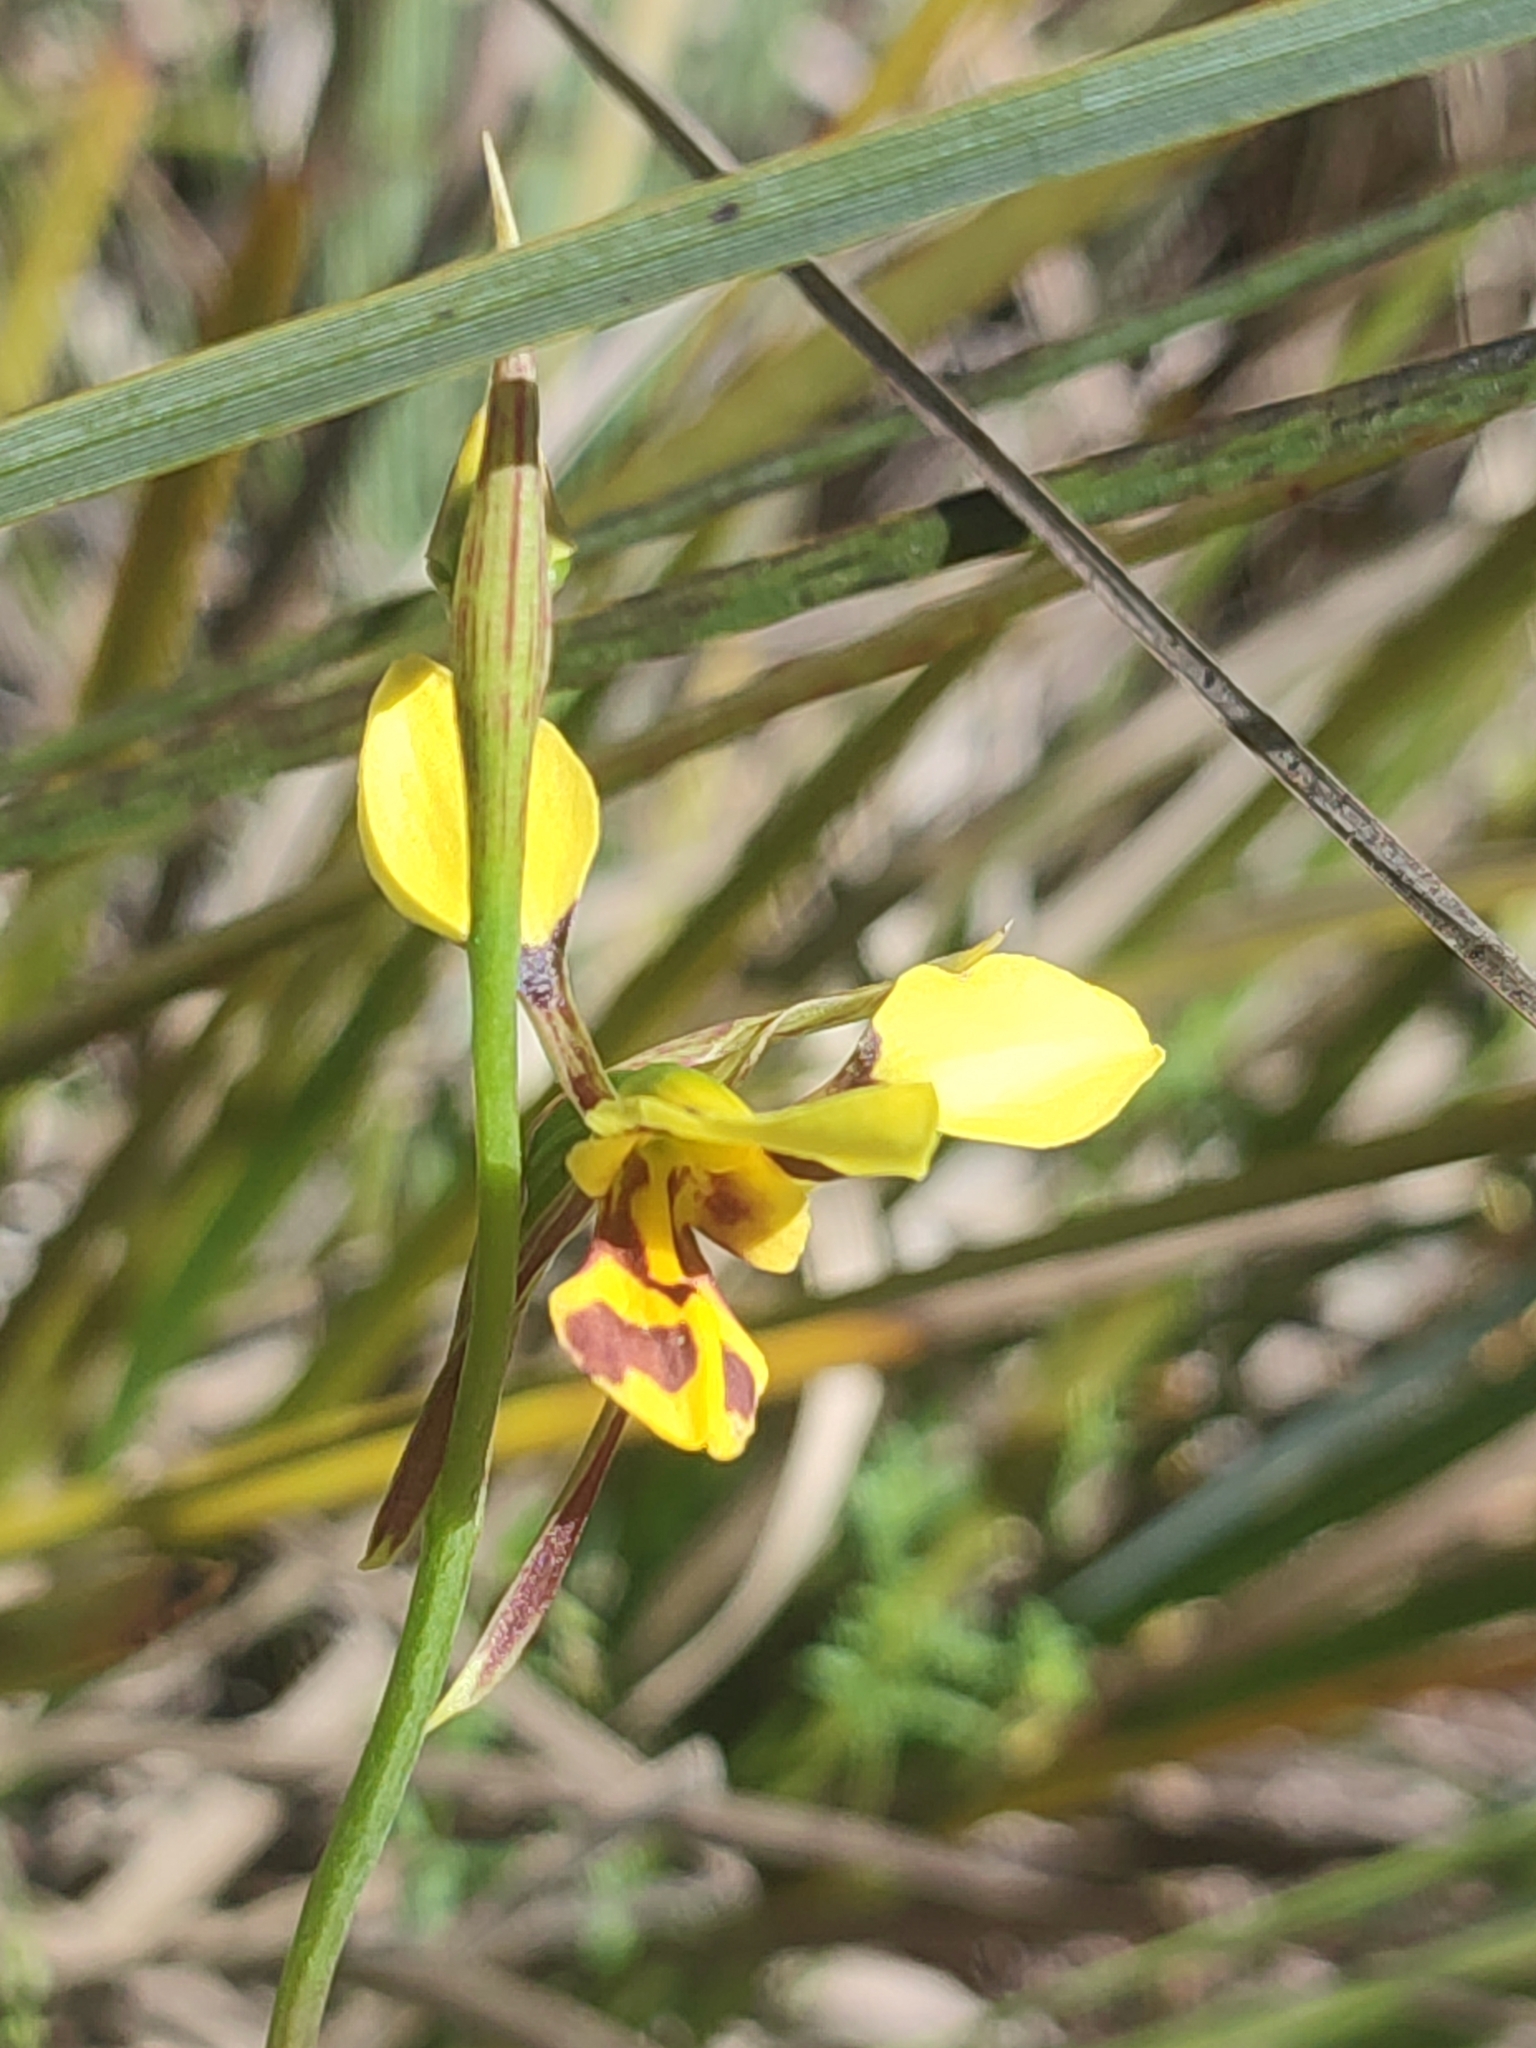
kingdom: Plantae
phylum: Tracheophyta
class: Liliopsida
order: Asparagales
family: Orchidaceae
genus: Diuris
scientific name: Diuris sulphurea
